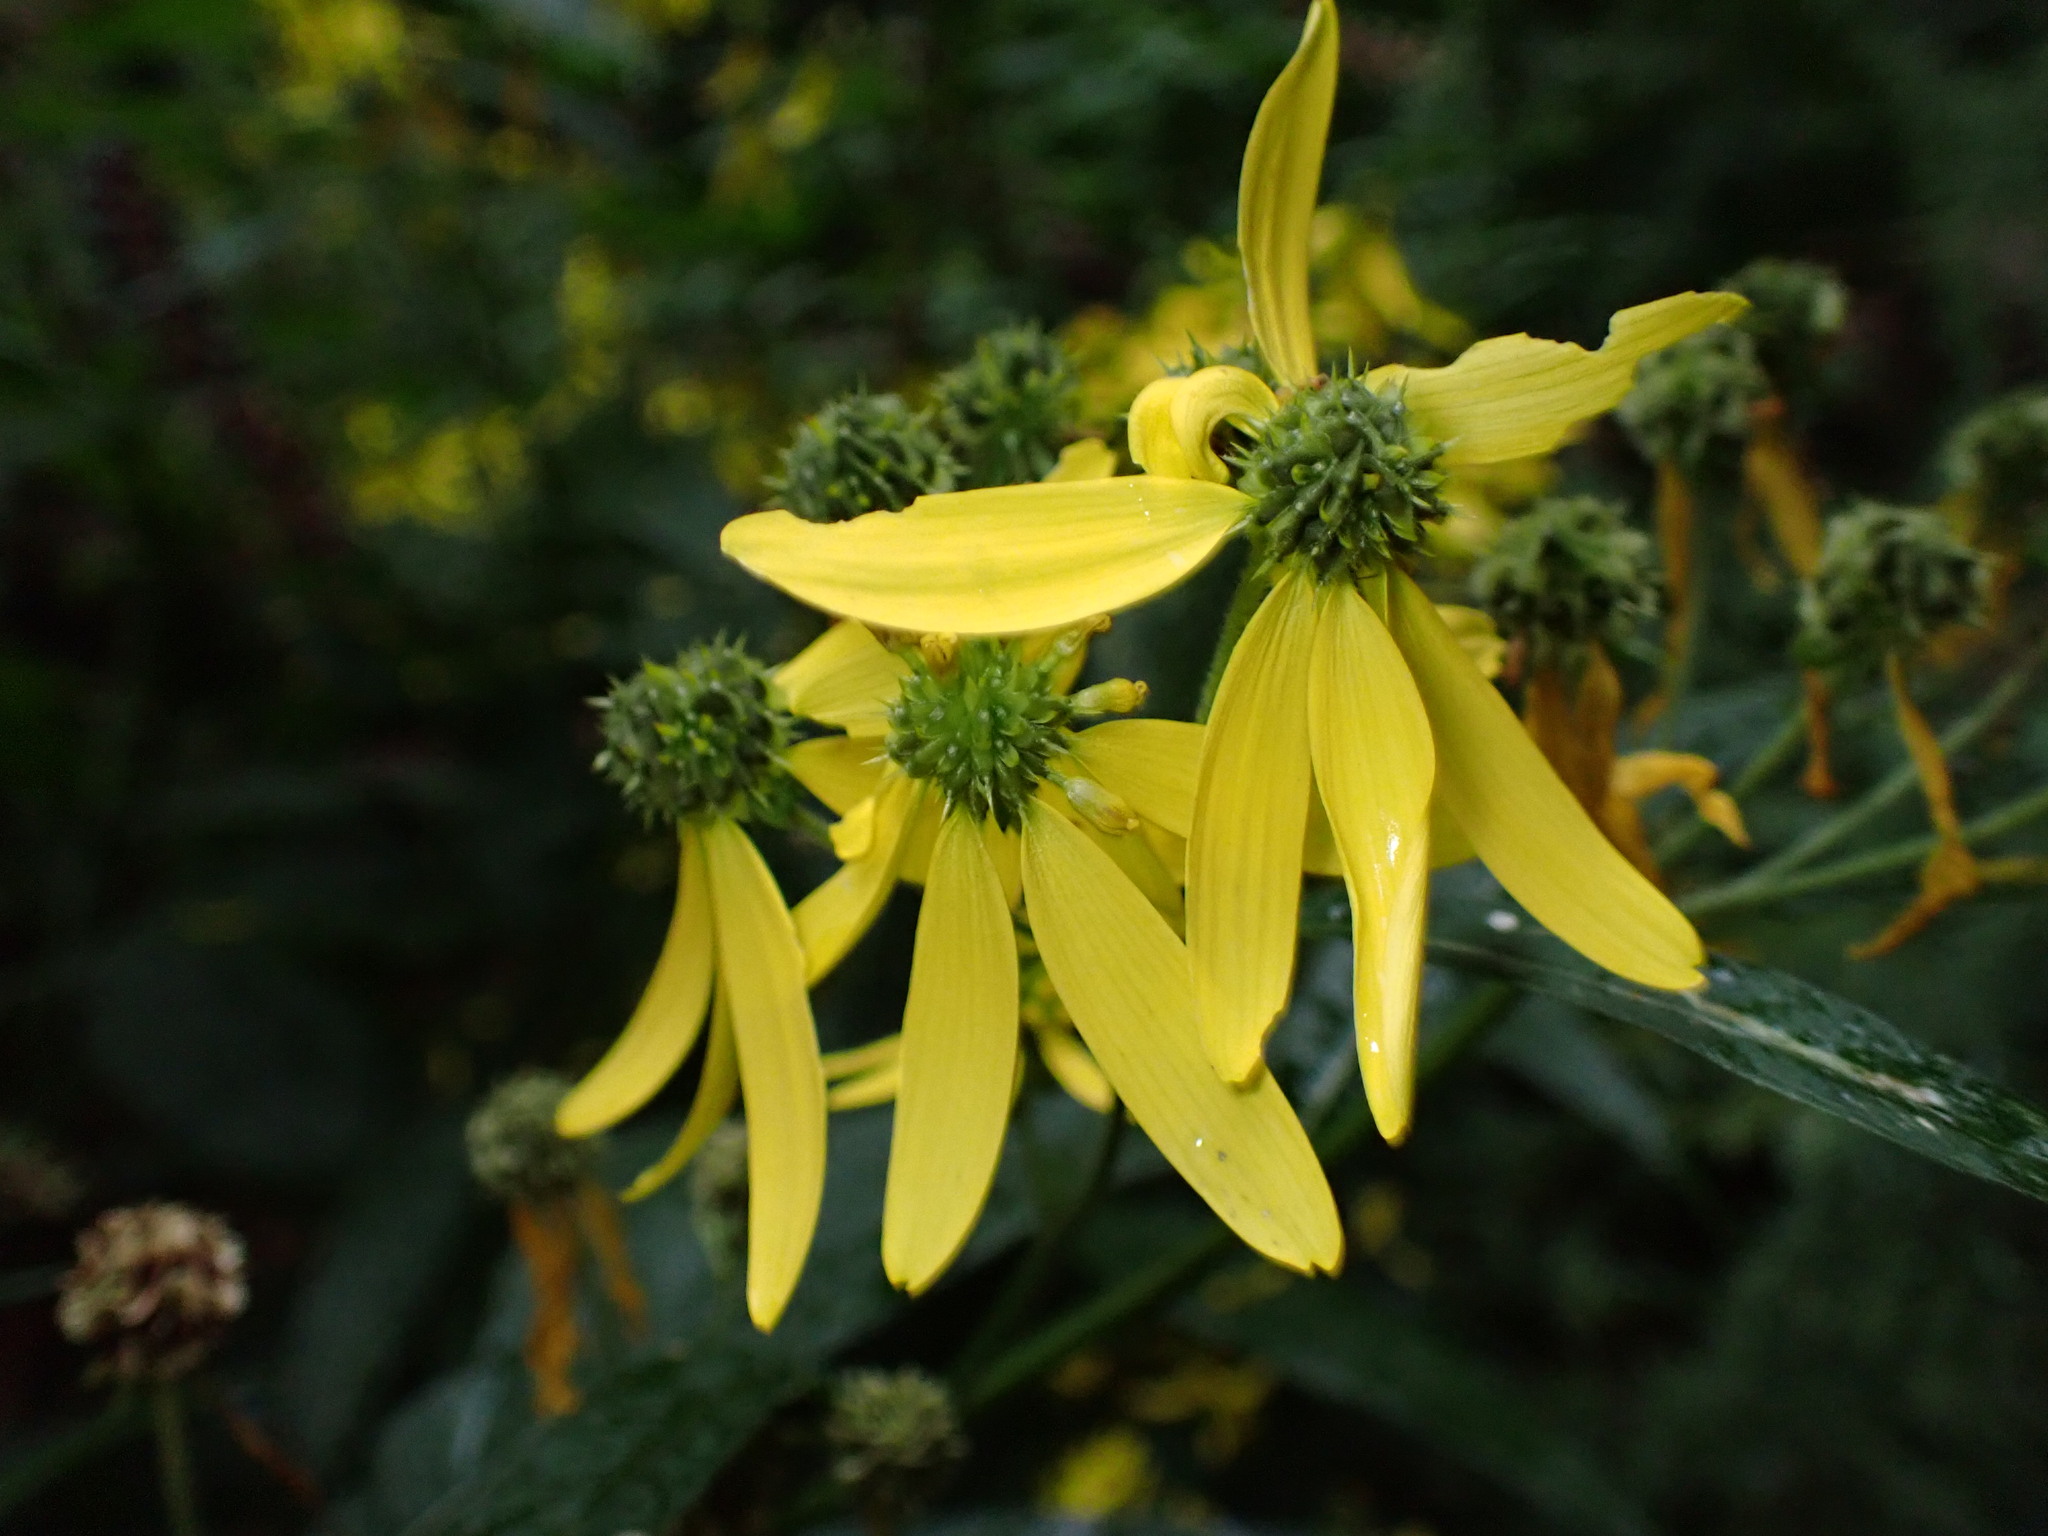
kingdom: Plantae
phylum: Tracheophyta
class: Magnoliopsida
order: Asterales
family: Asteraceae
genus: Verbesina
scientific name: Verbesina alternifolia
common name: Wingstem
